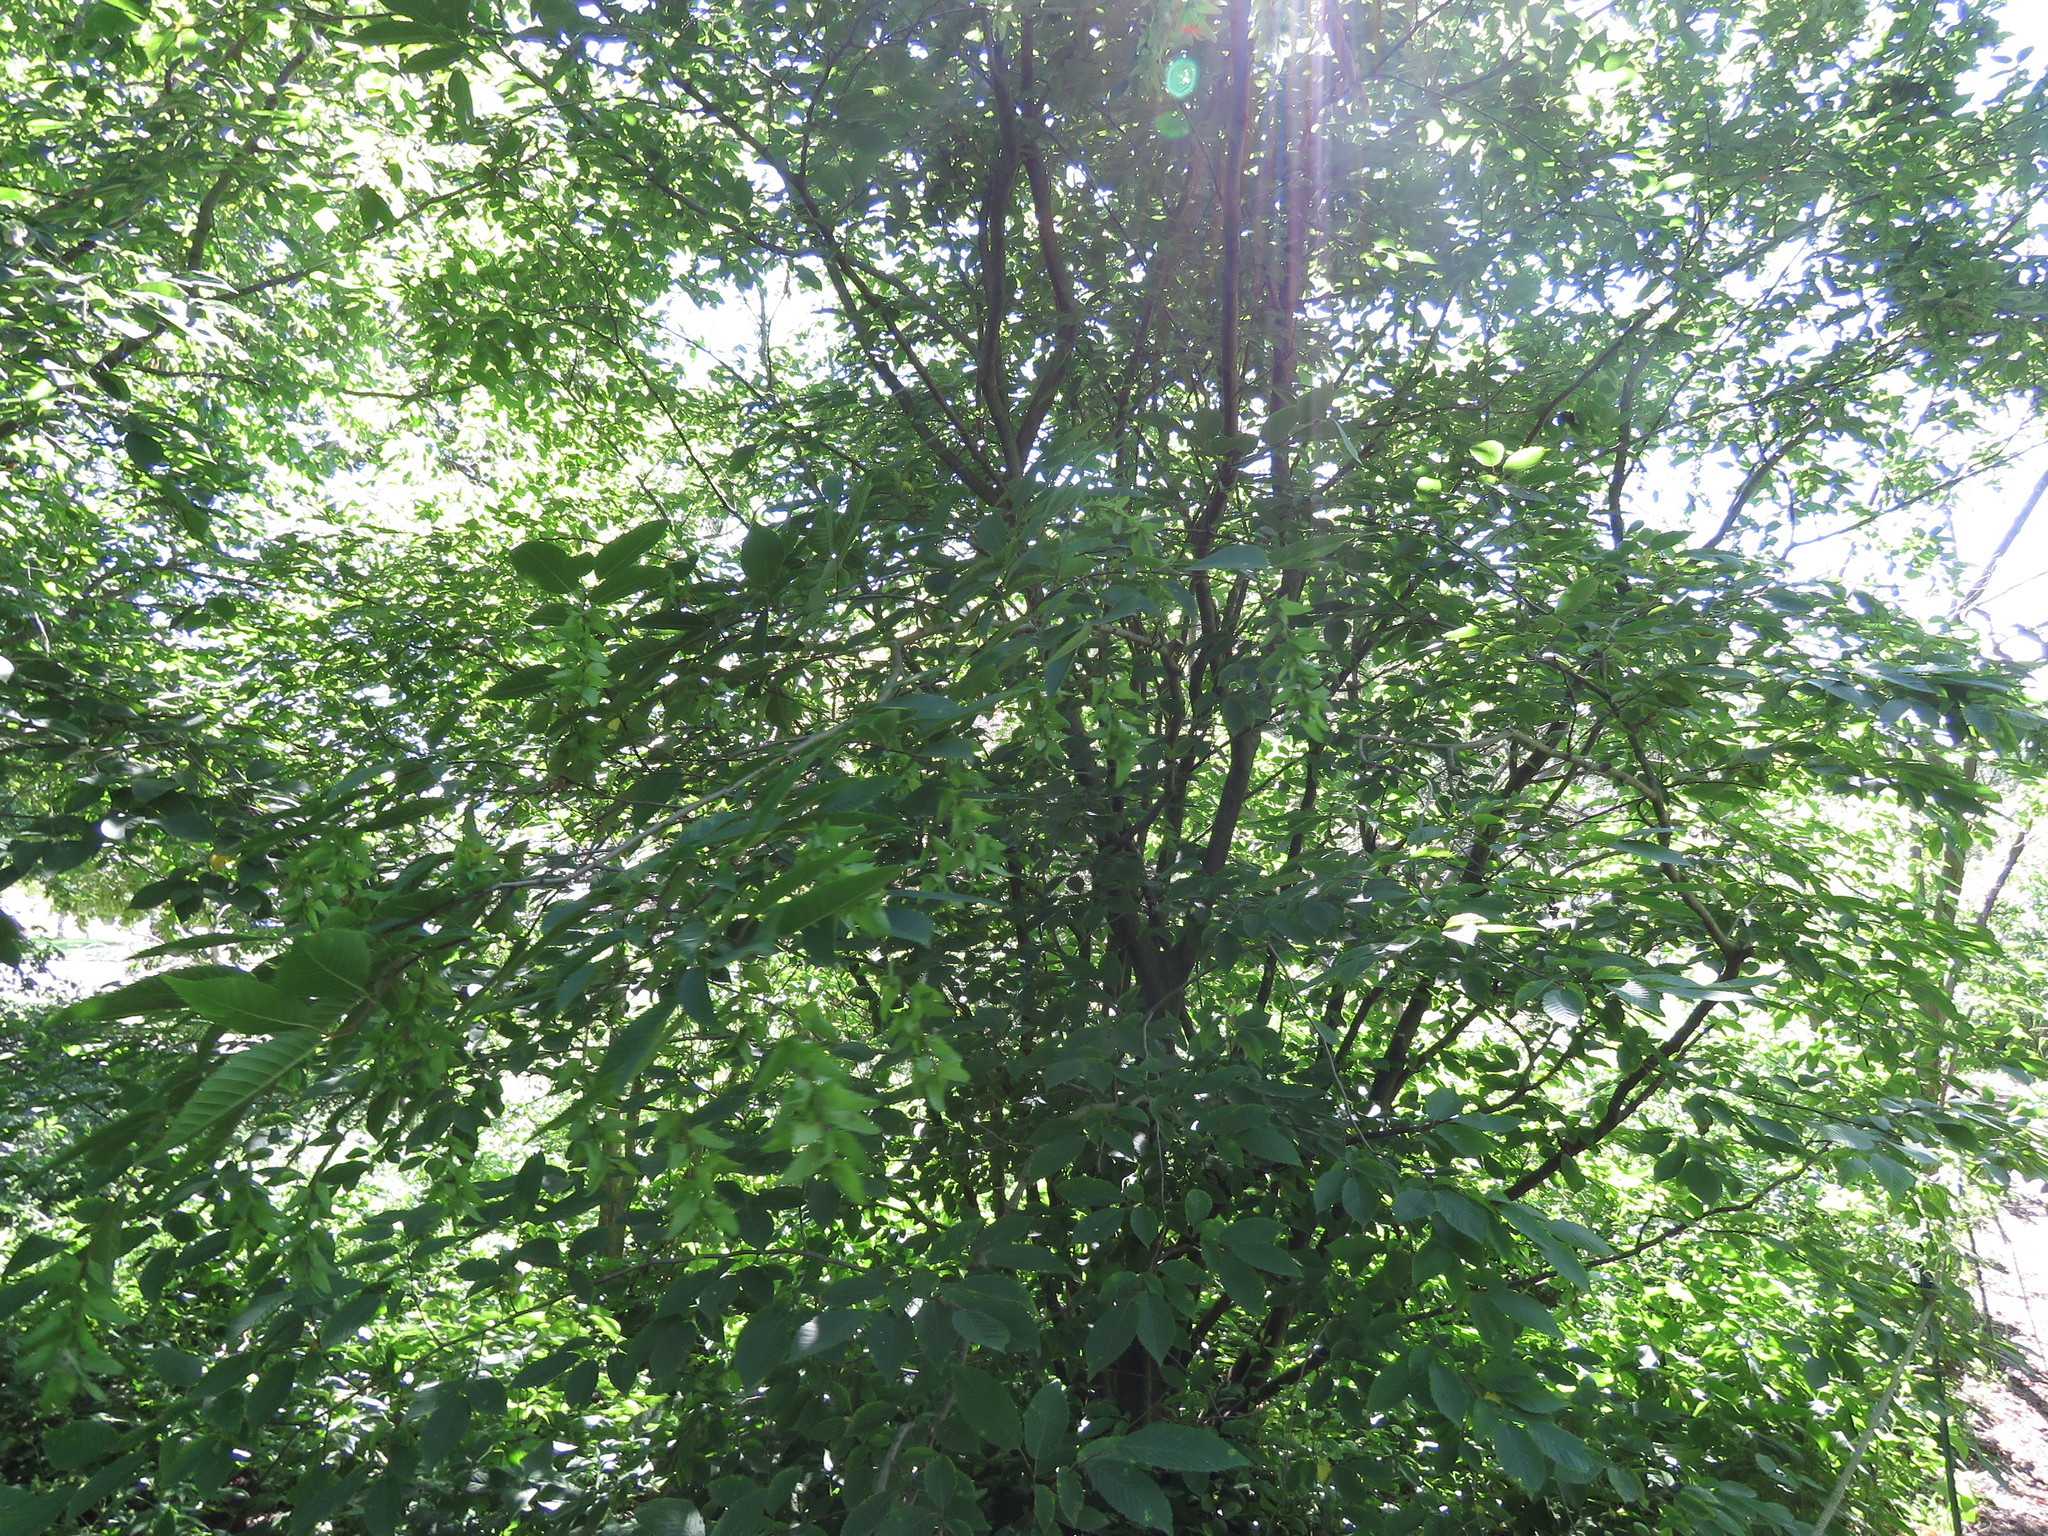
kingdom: Plantae
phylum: Tracheophyta
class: Magnoliopsida
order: Fagales
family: Betulaceae
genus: Carpinus
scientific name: Carpinus caroliniana
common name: American hornbeam
